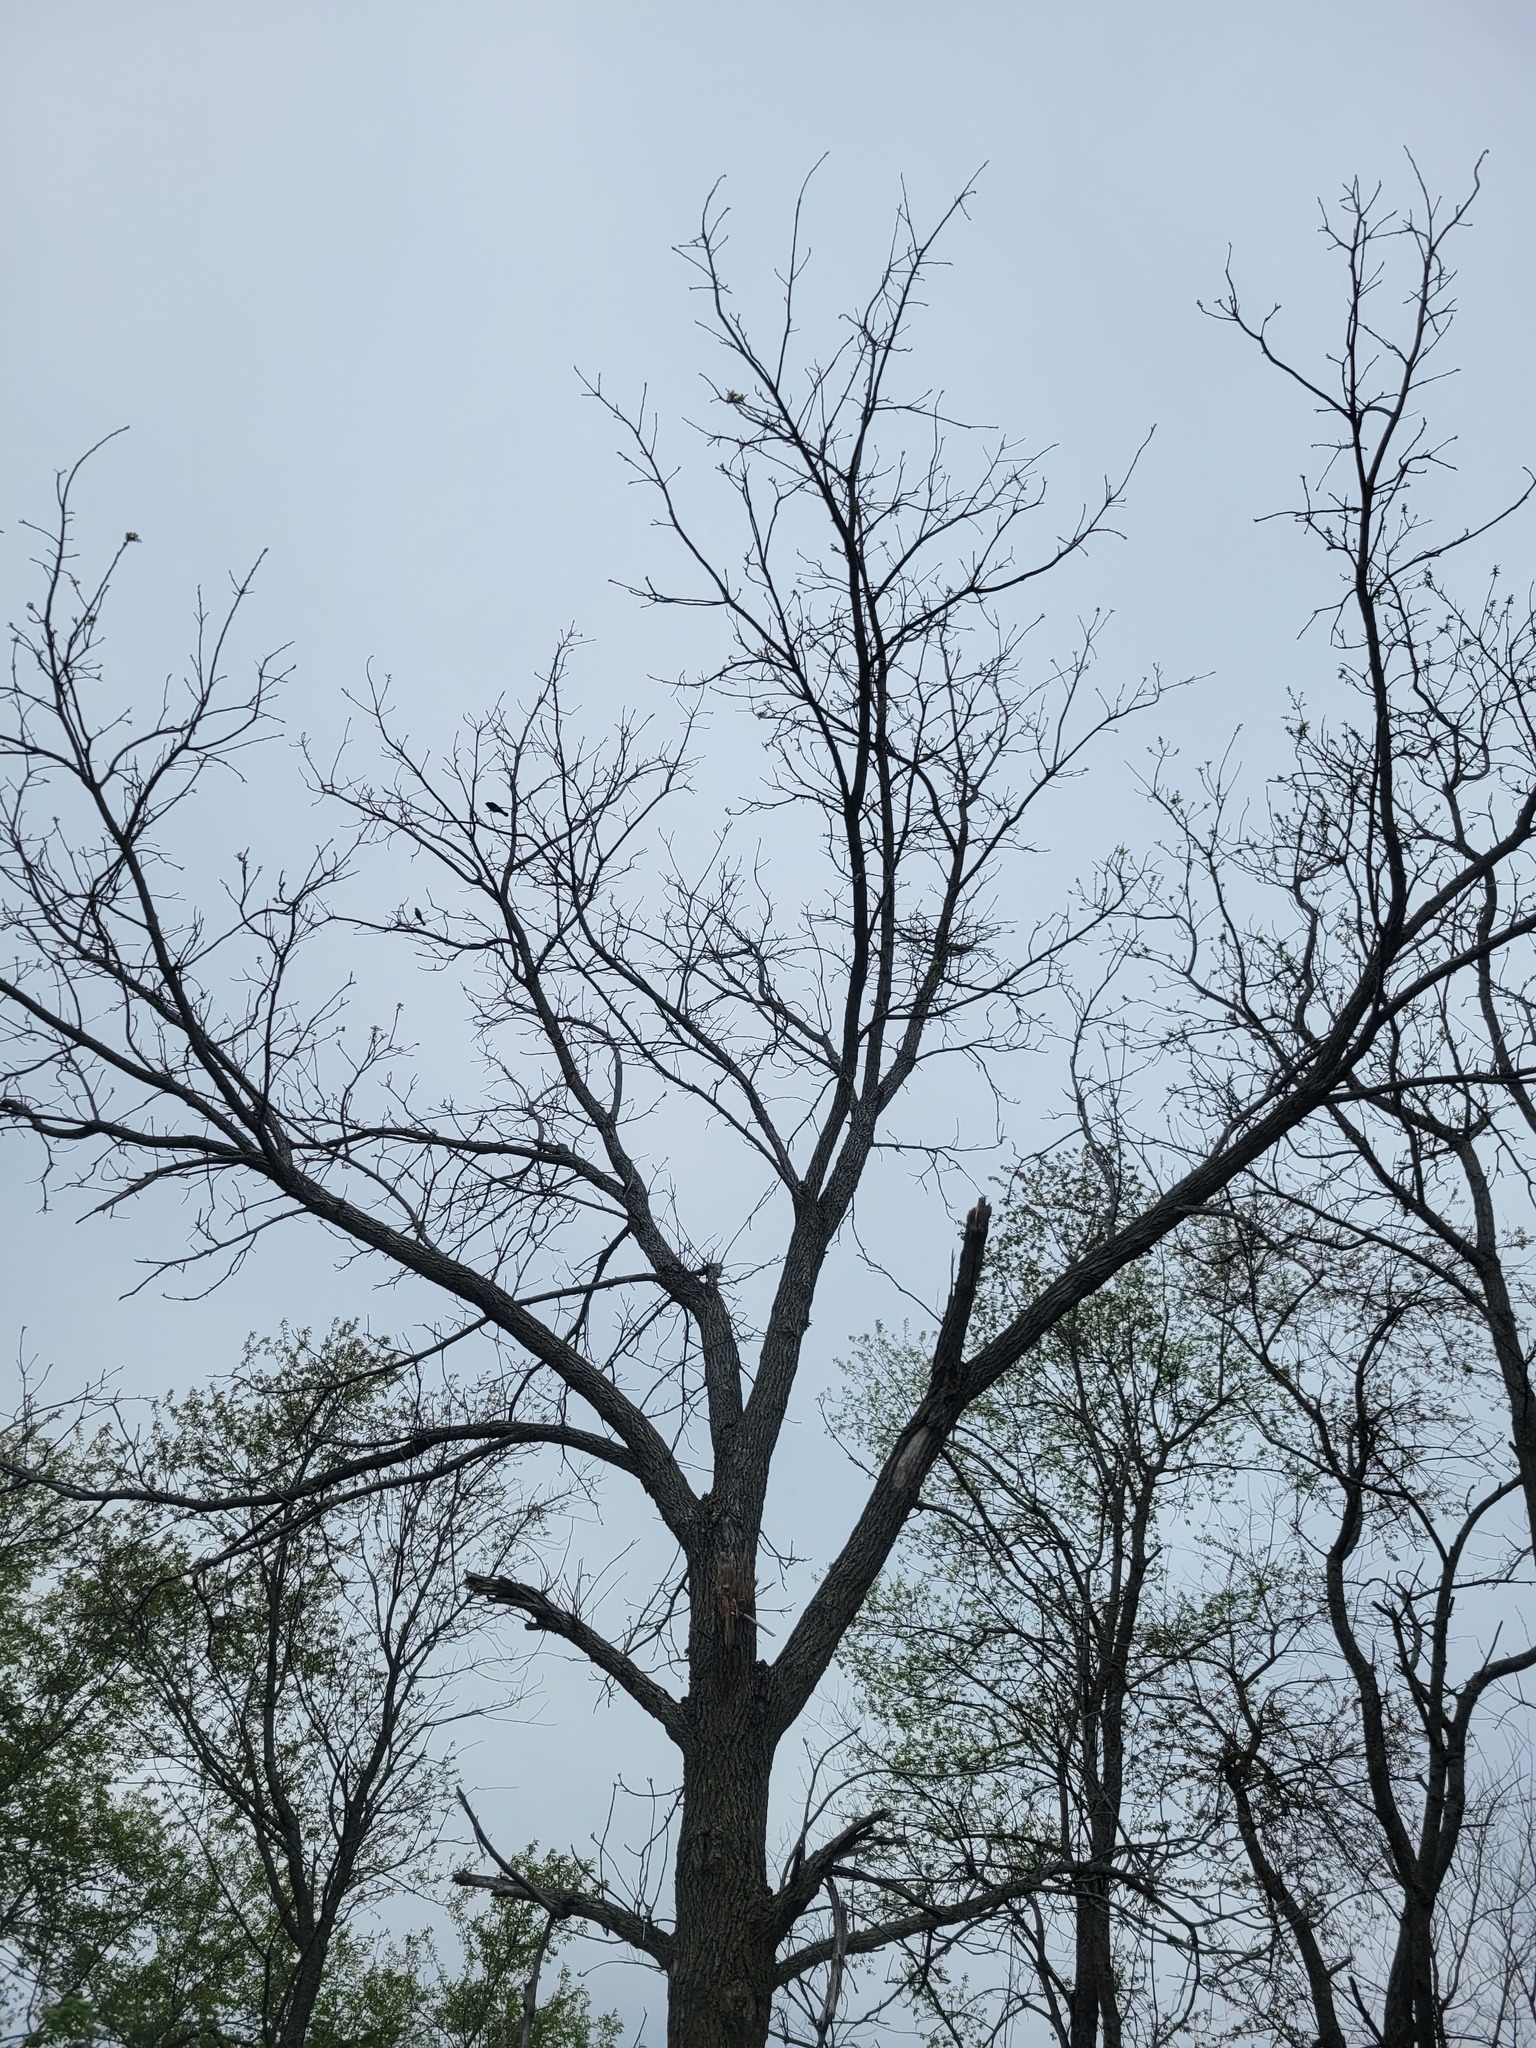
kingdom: Animalia
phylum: Chordata
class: Aves
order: Piciformes
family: Picidae
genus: Melanerpes
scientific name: Melanerpes carolinus
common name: Red-bellied woodpecker
